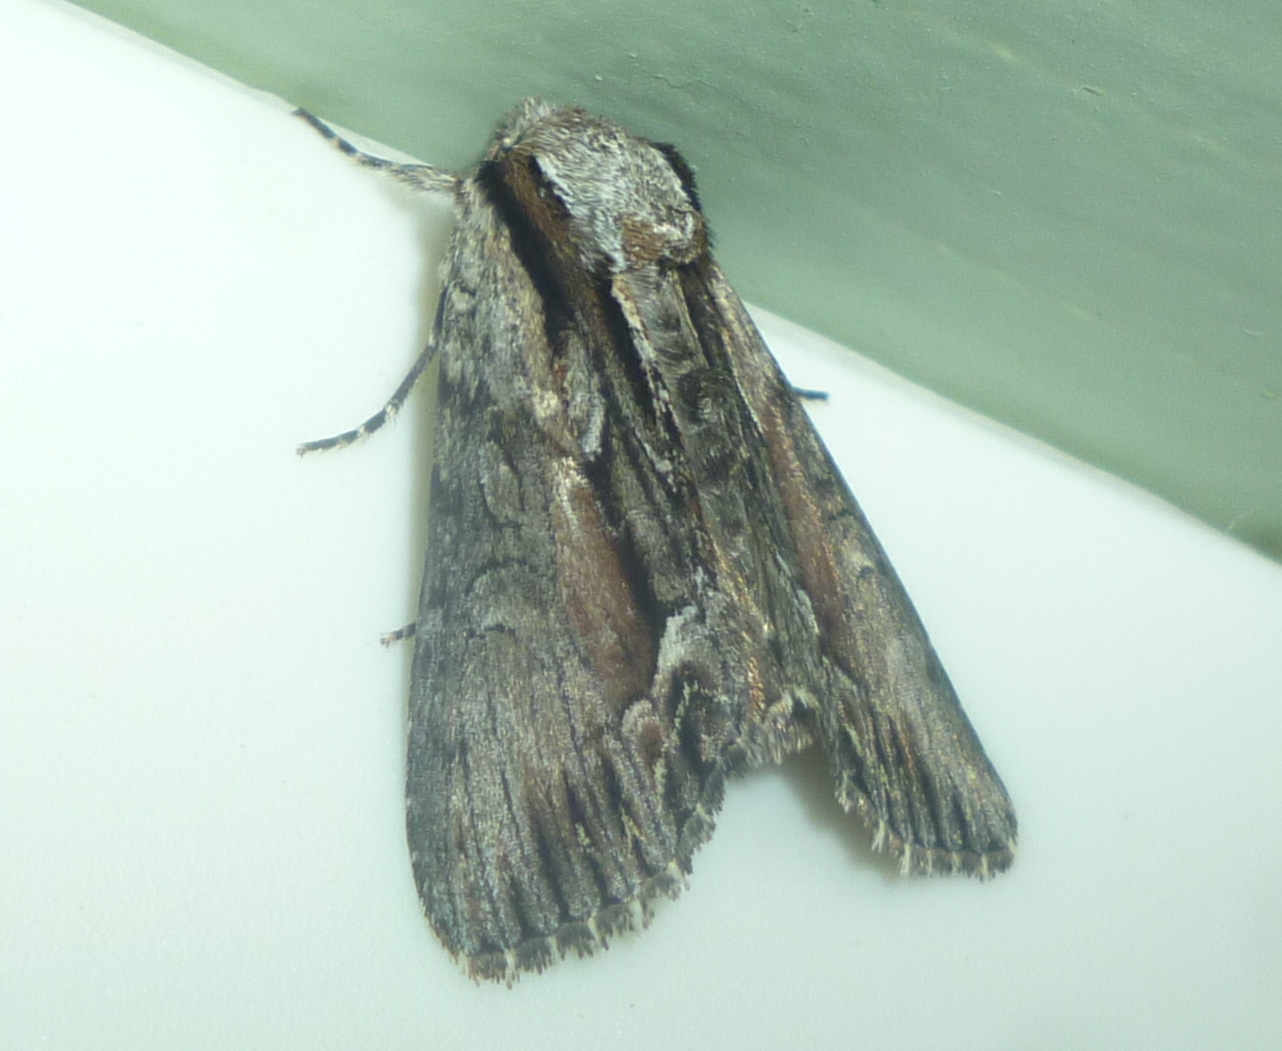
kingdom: Animalia
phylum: Arthropoda
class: Insecta
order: Lepidoptera
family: Noctuidae
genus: Hyppa
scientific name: Hyppa xylinoides
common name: Common hyppa moth
